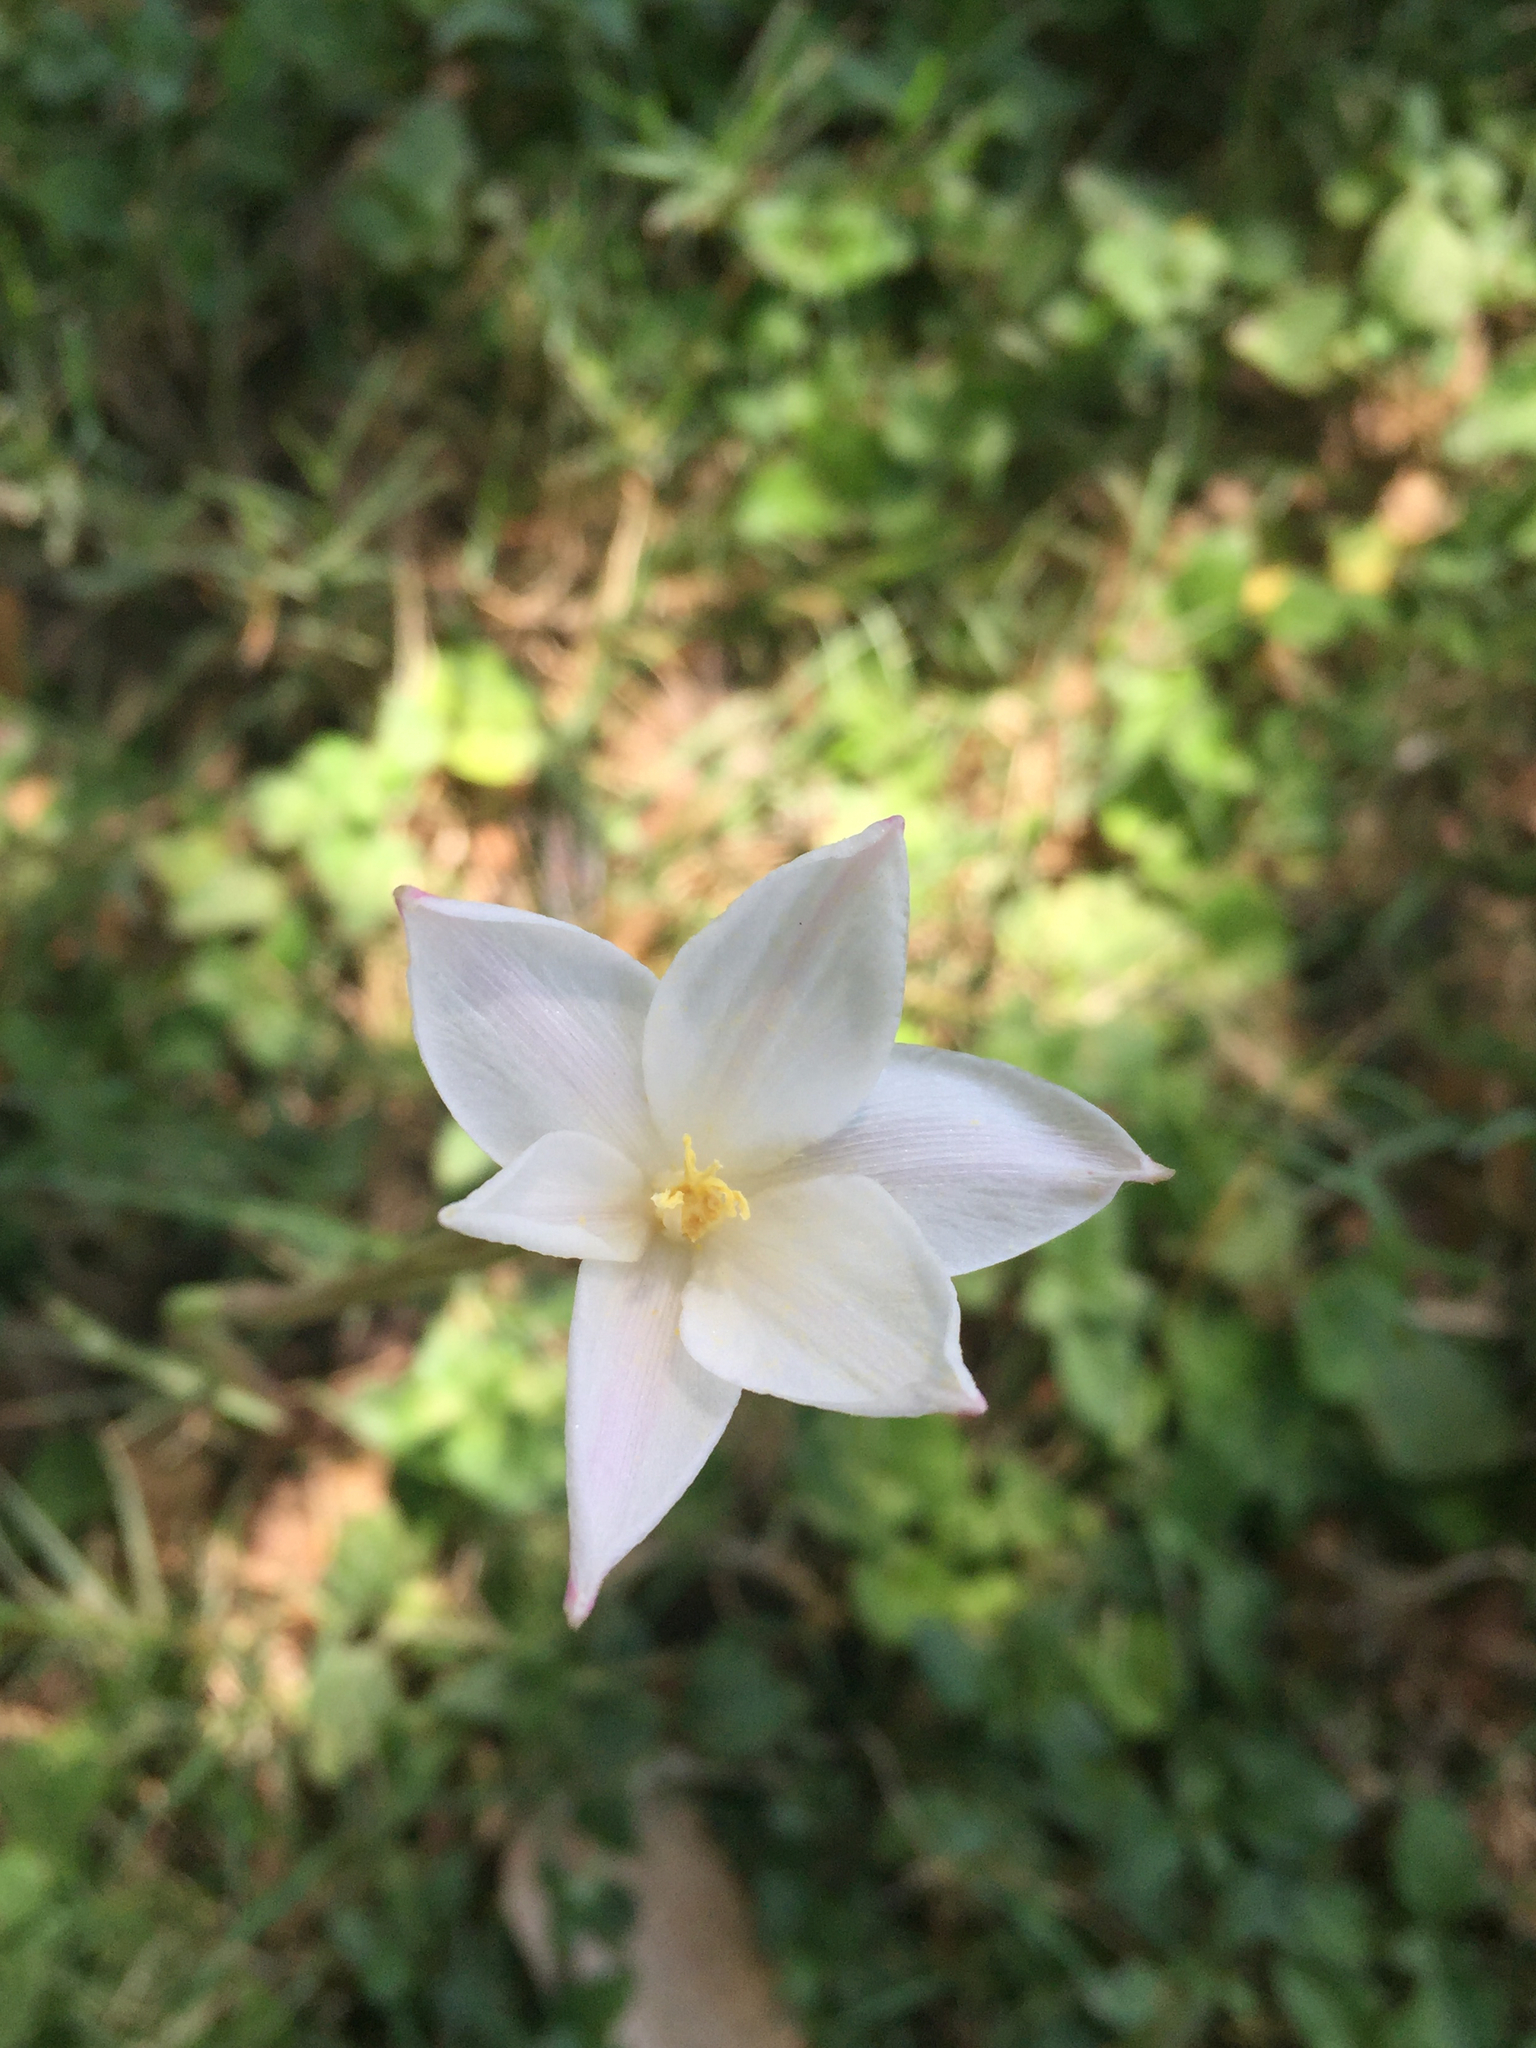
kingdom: Plantae
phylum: Tracheophyta
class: Liliopsida
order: Asparagales
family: Amaryllidaceae
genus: Zephyranthes
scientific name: Zephyranthes chlorosolen
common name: Evening rain-lily
